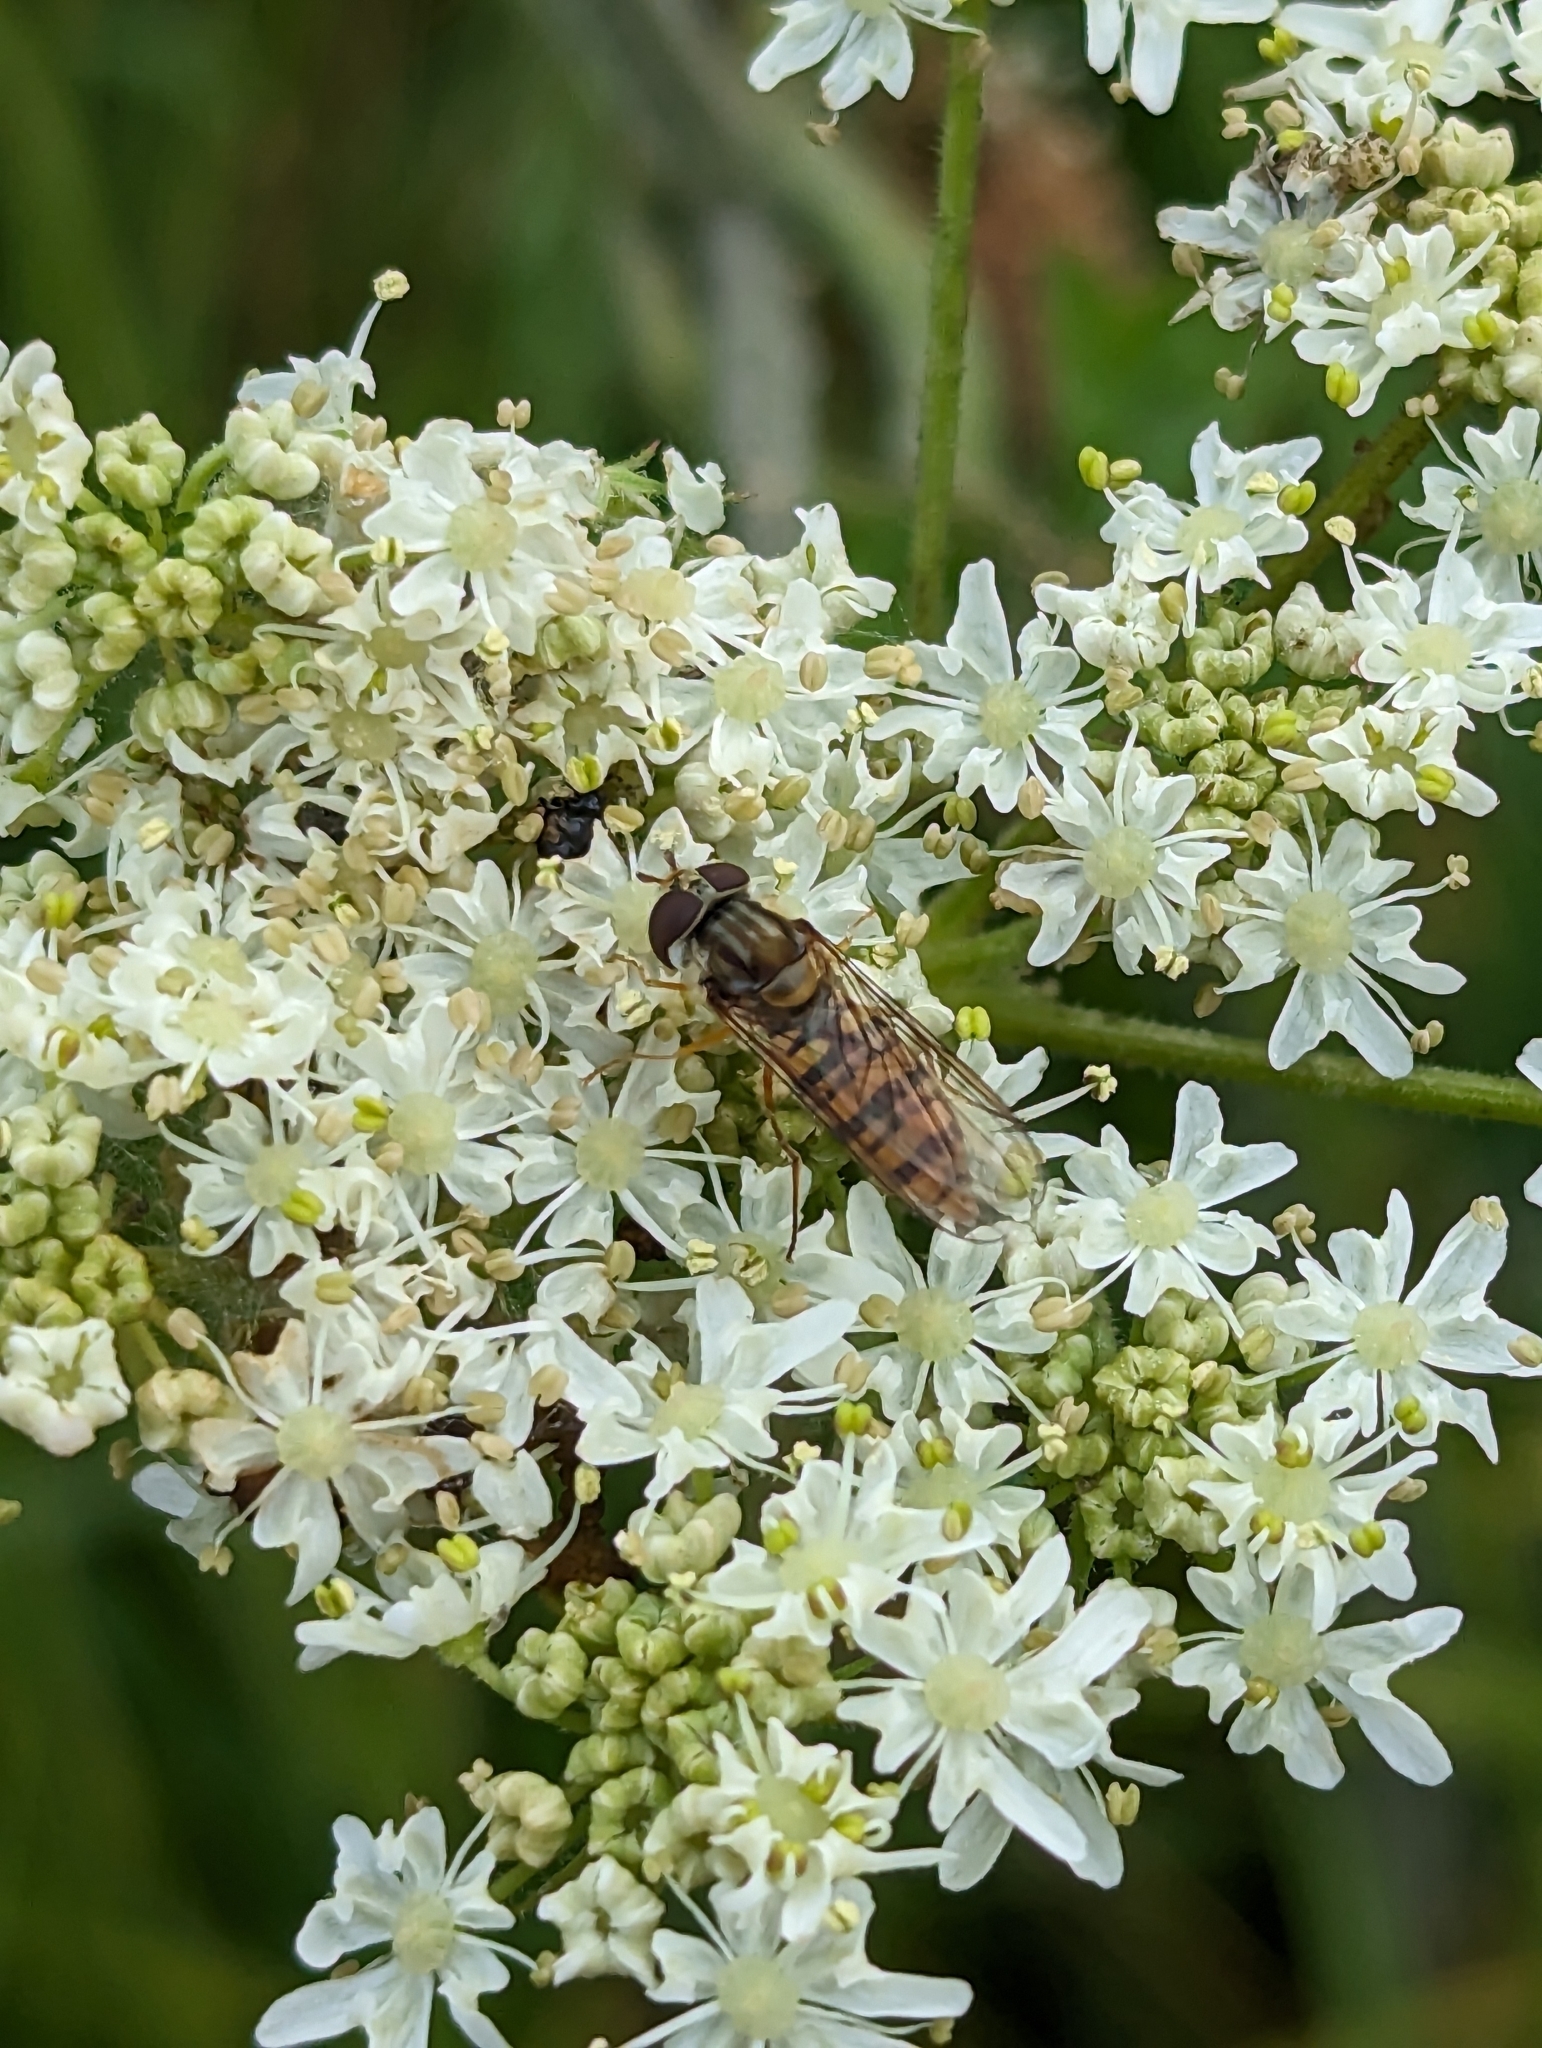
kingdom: Animalia
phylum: Arthropoda
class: Insecta
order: Diptera
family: Syrphidae
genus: Episyrphus
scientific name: Episyrphus balteatus
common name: Marmalade hoverfly
